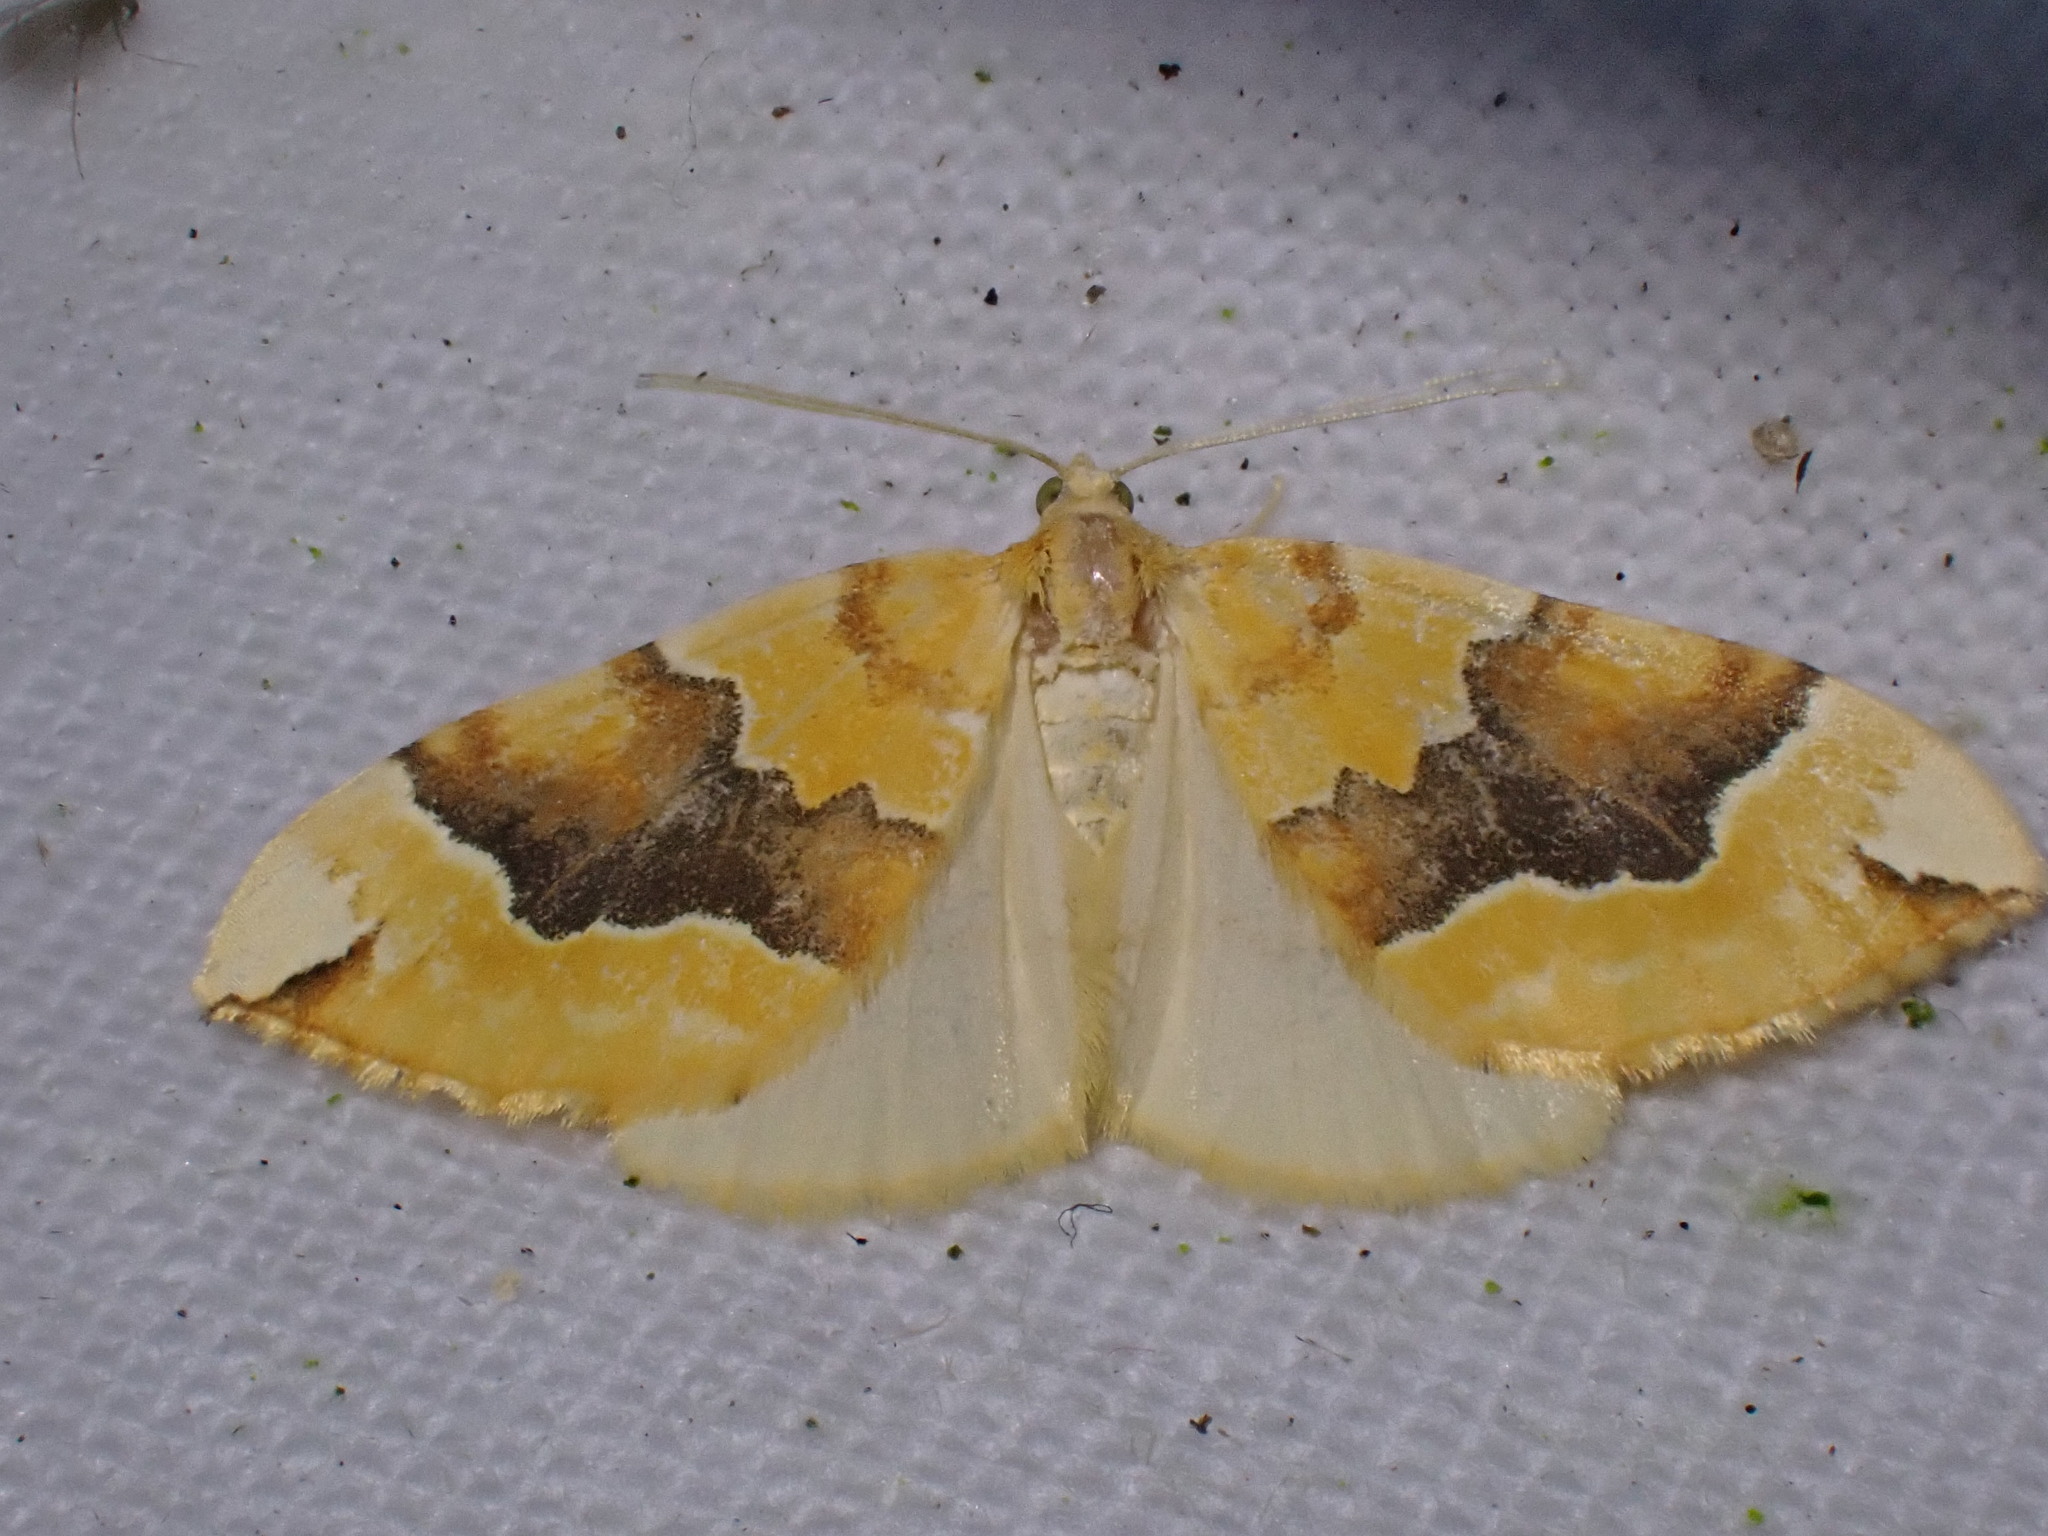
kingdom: Animalia
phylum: Arthropoda
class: Insecta
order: Lepidoptera
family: Geometridae
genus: Cidaria
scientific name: Cidaria fulvata
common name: Barred yellow
